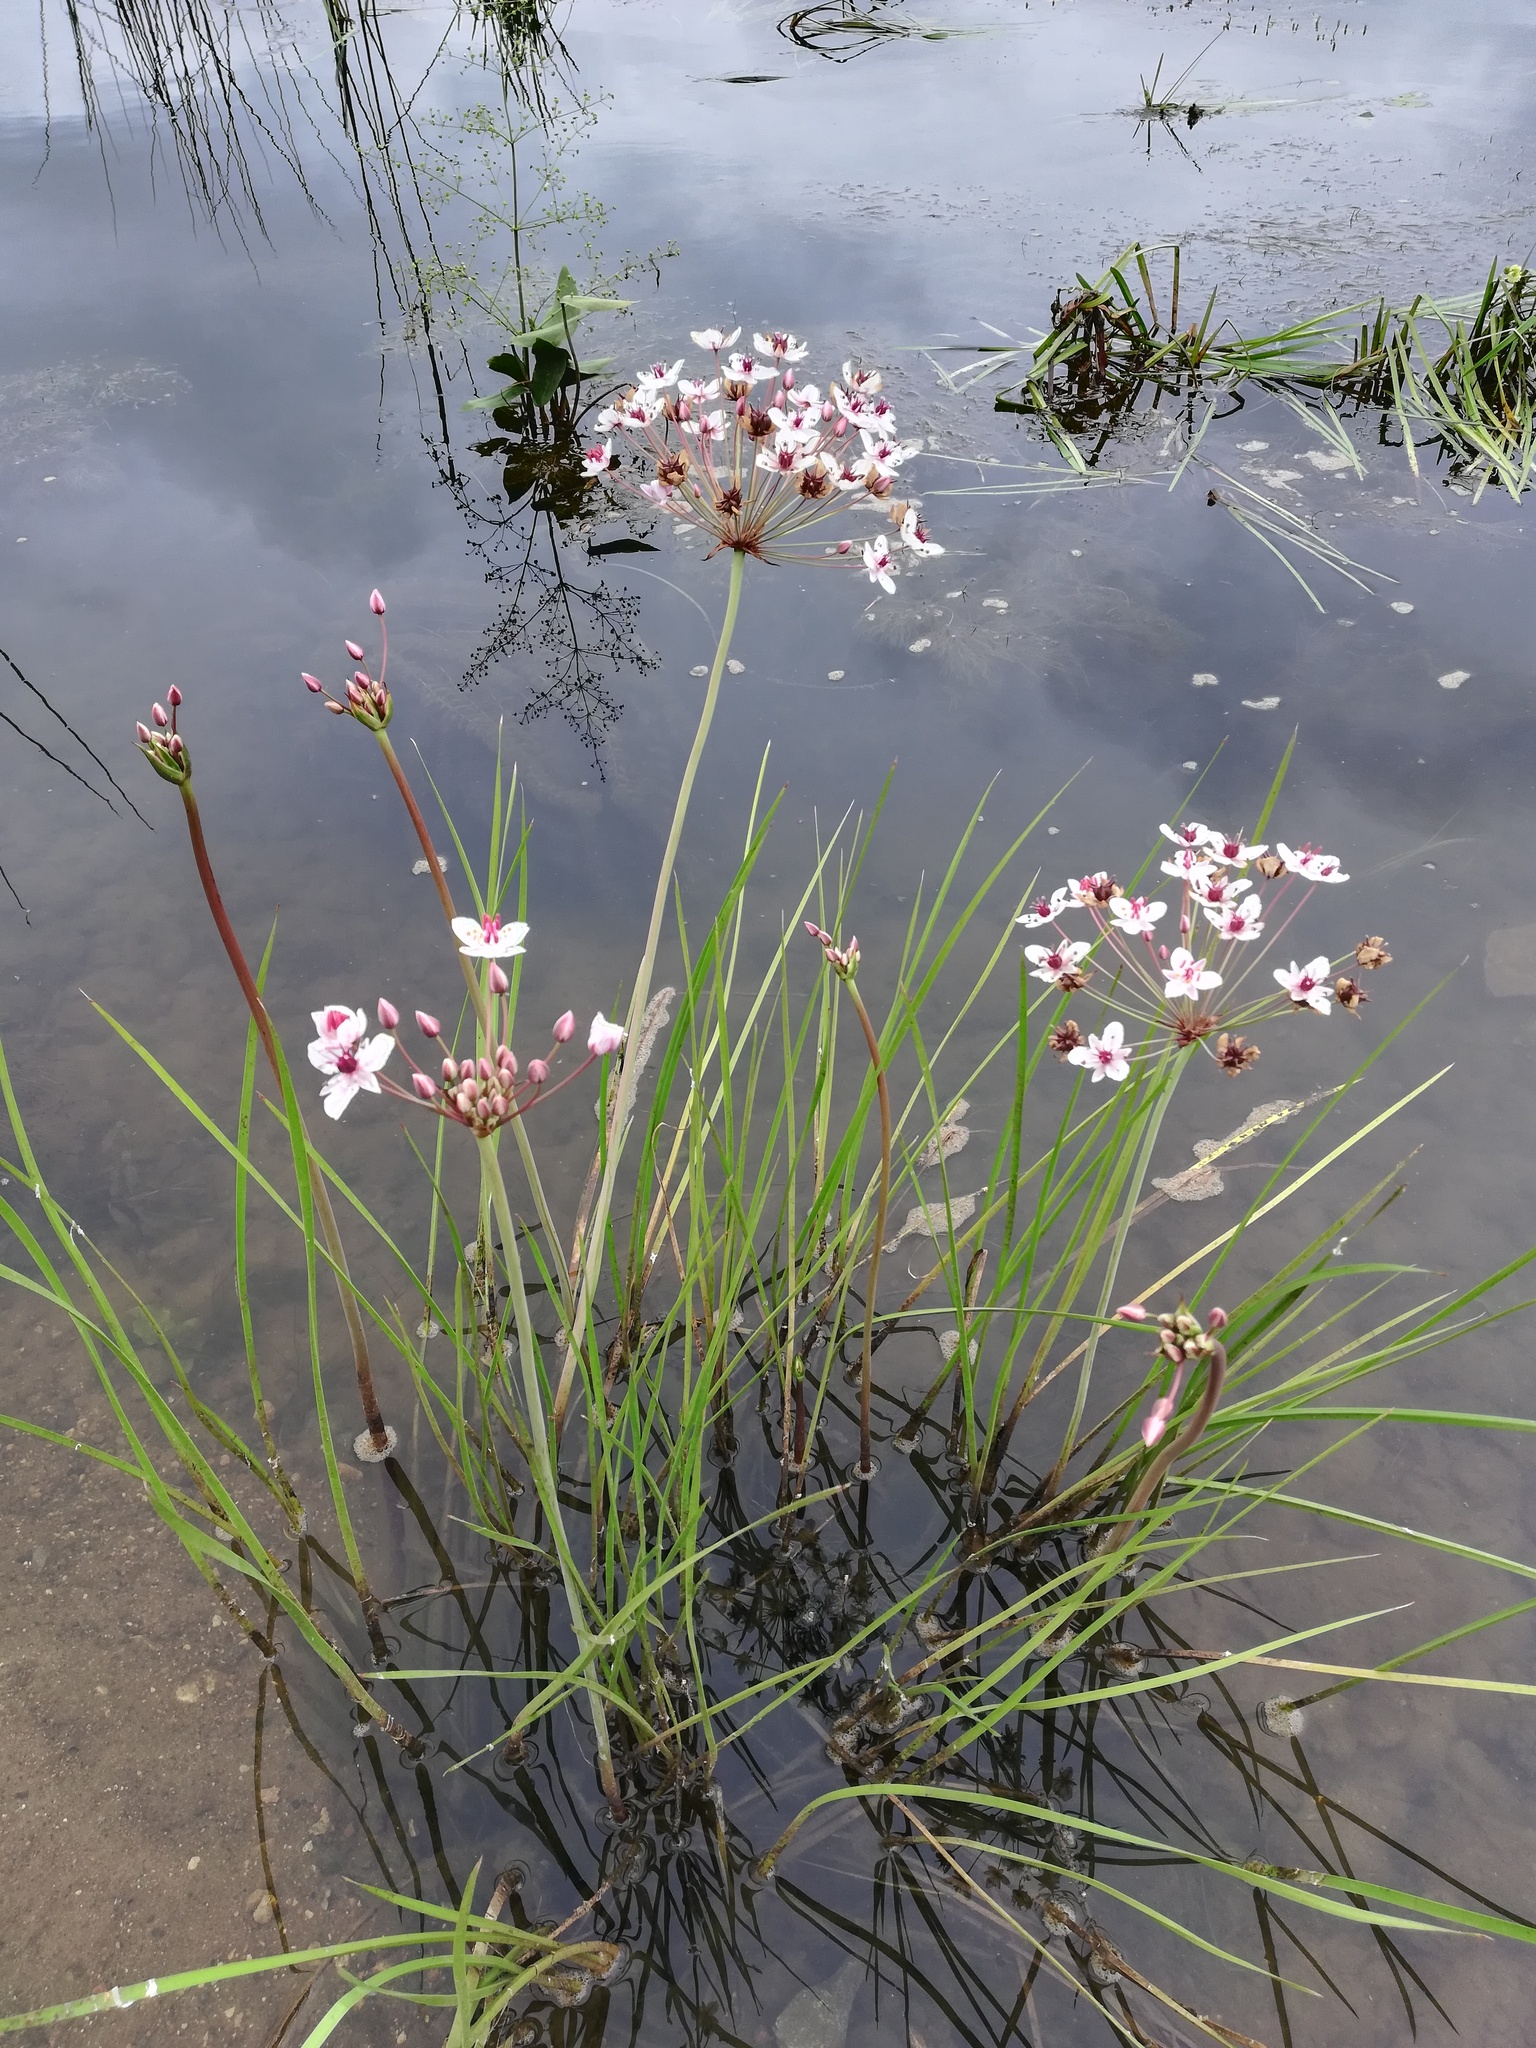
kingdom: Plantae
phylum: Tracheophyta
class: Liliopsida
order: Alismatales
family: Butomaceae
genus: Butomus
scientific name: Butomus umbellatus
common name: Flowering-rush
